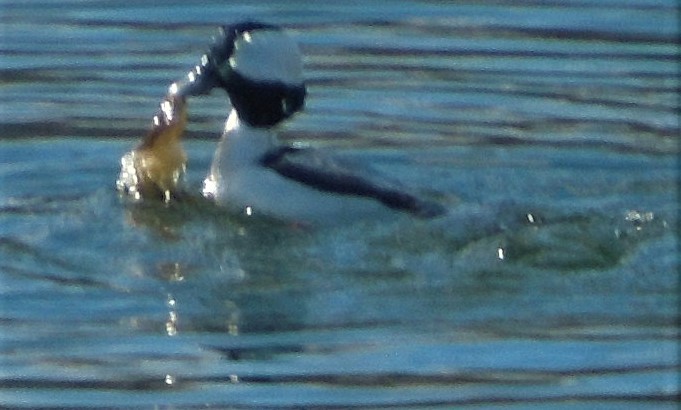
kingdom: Animalia
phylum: Chordata
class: Aves
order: Anseriformes
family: Anatidae
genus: Bucephala
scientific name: Bucephala albeola
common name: Bufflehead
